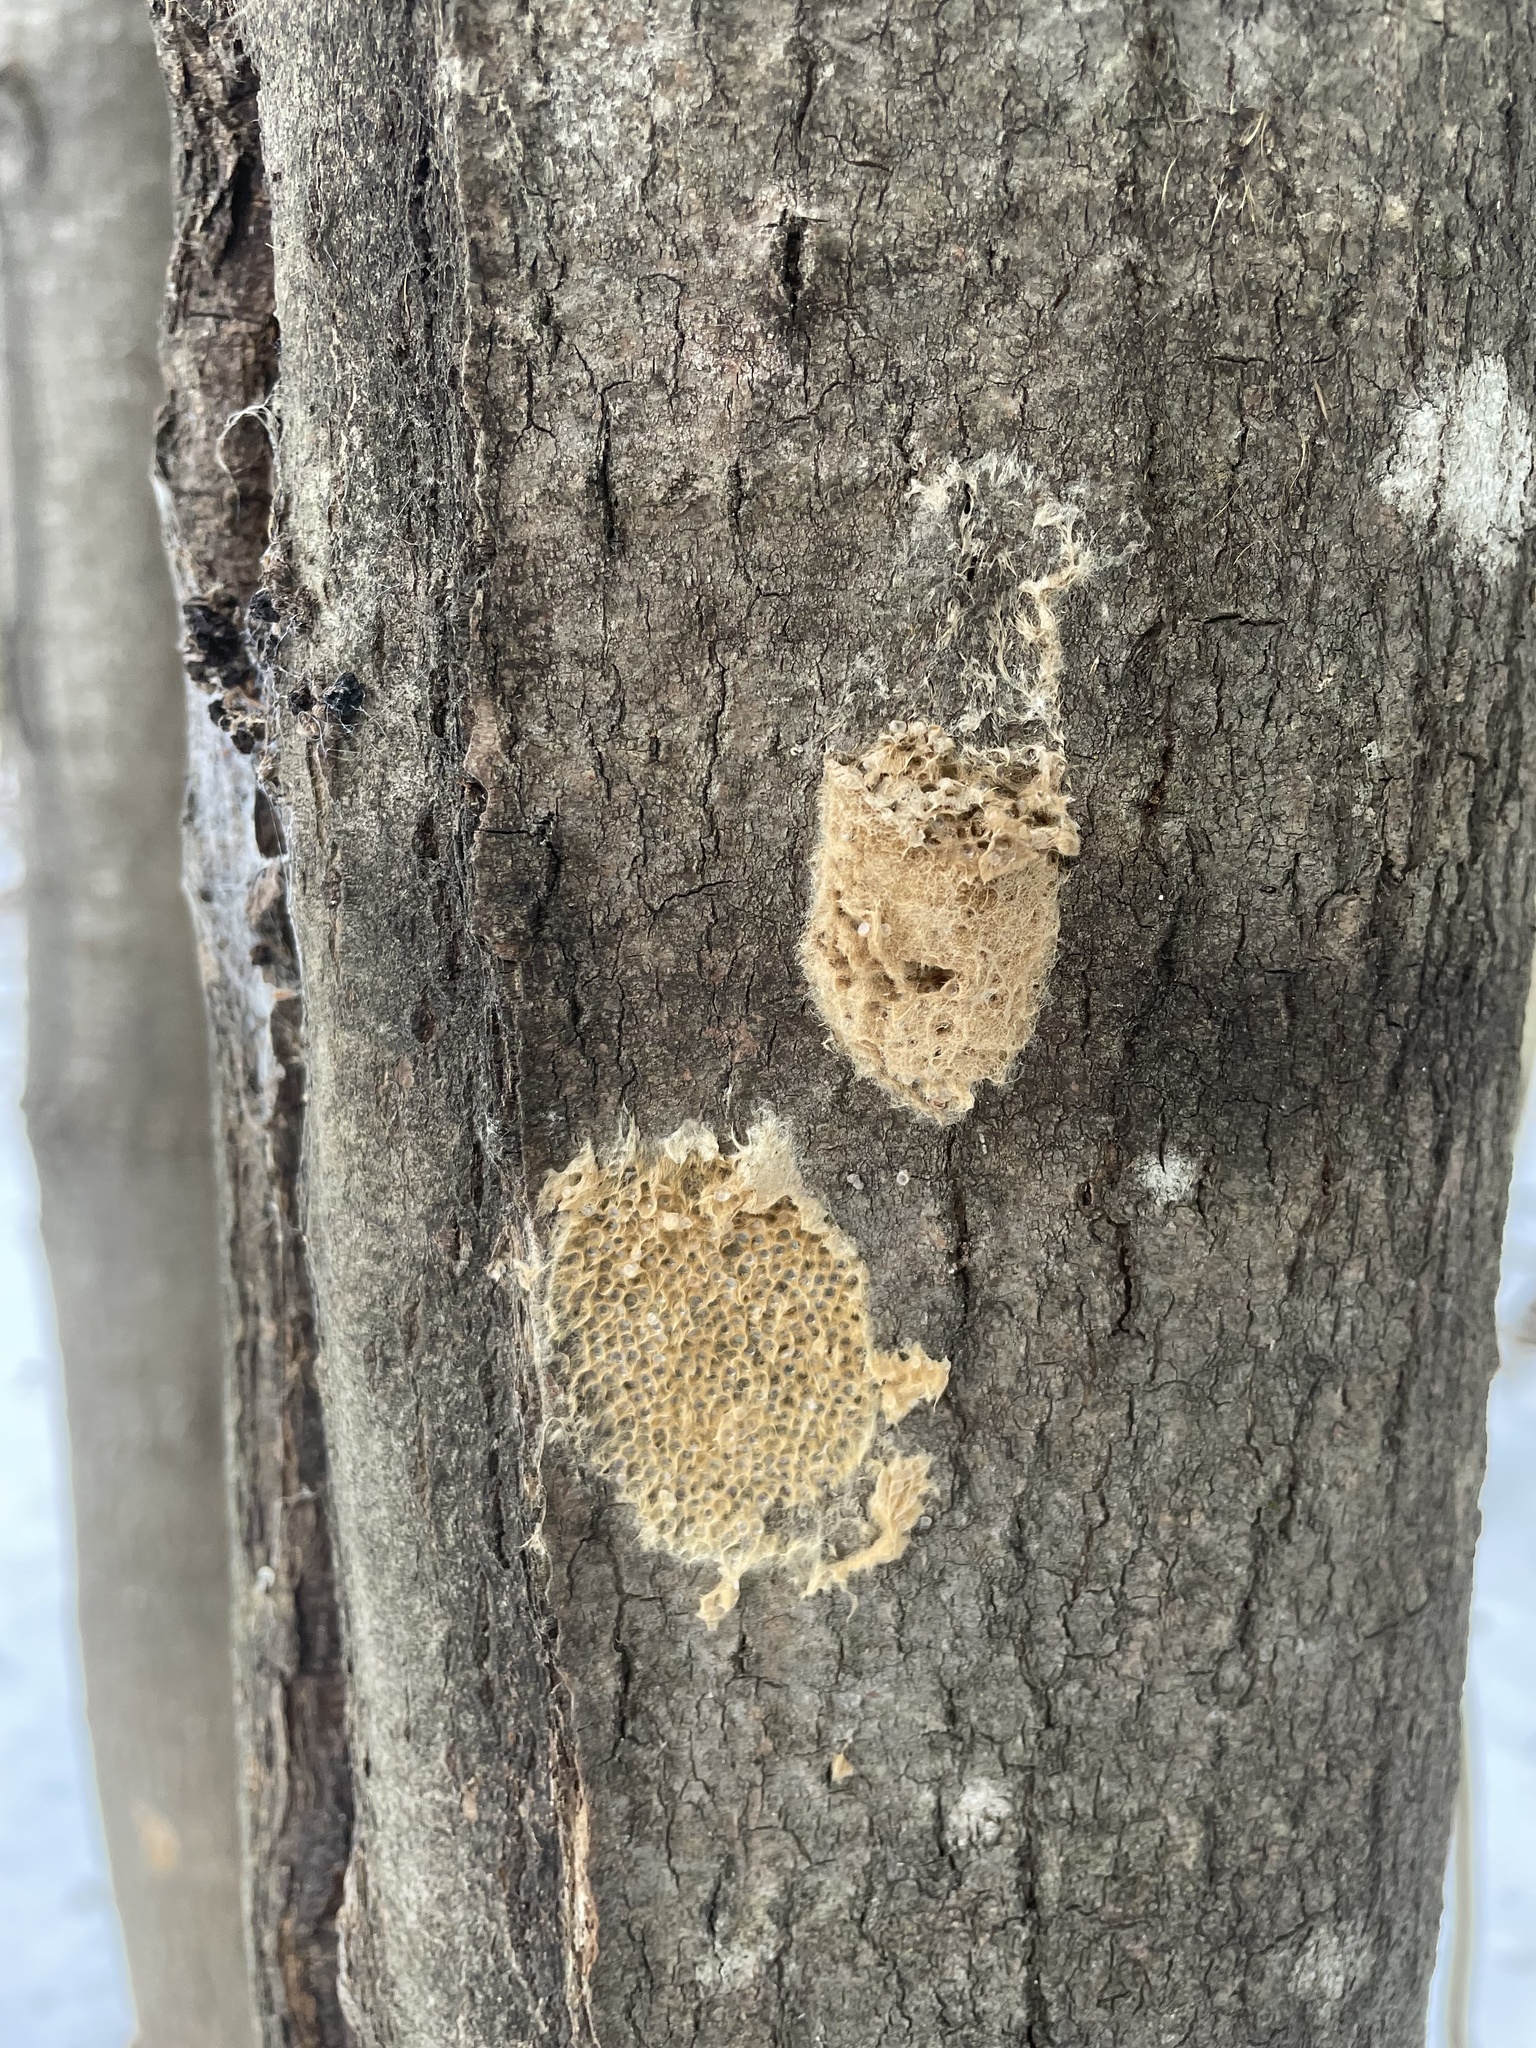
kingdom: Animalia
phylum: Arthropoda
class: Insecta
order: Lepidoptera
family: Erebidae
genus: Lymantria
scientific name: Lymantria dispar
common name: Gypsy moth
